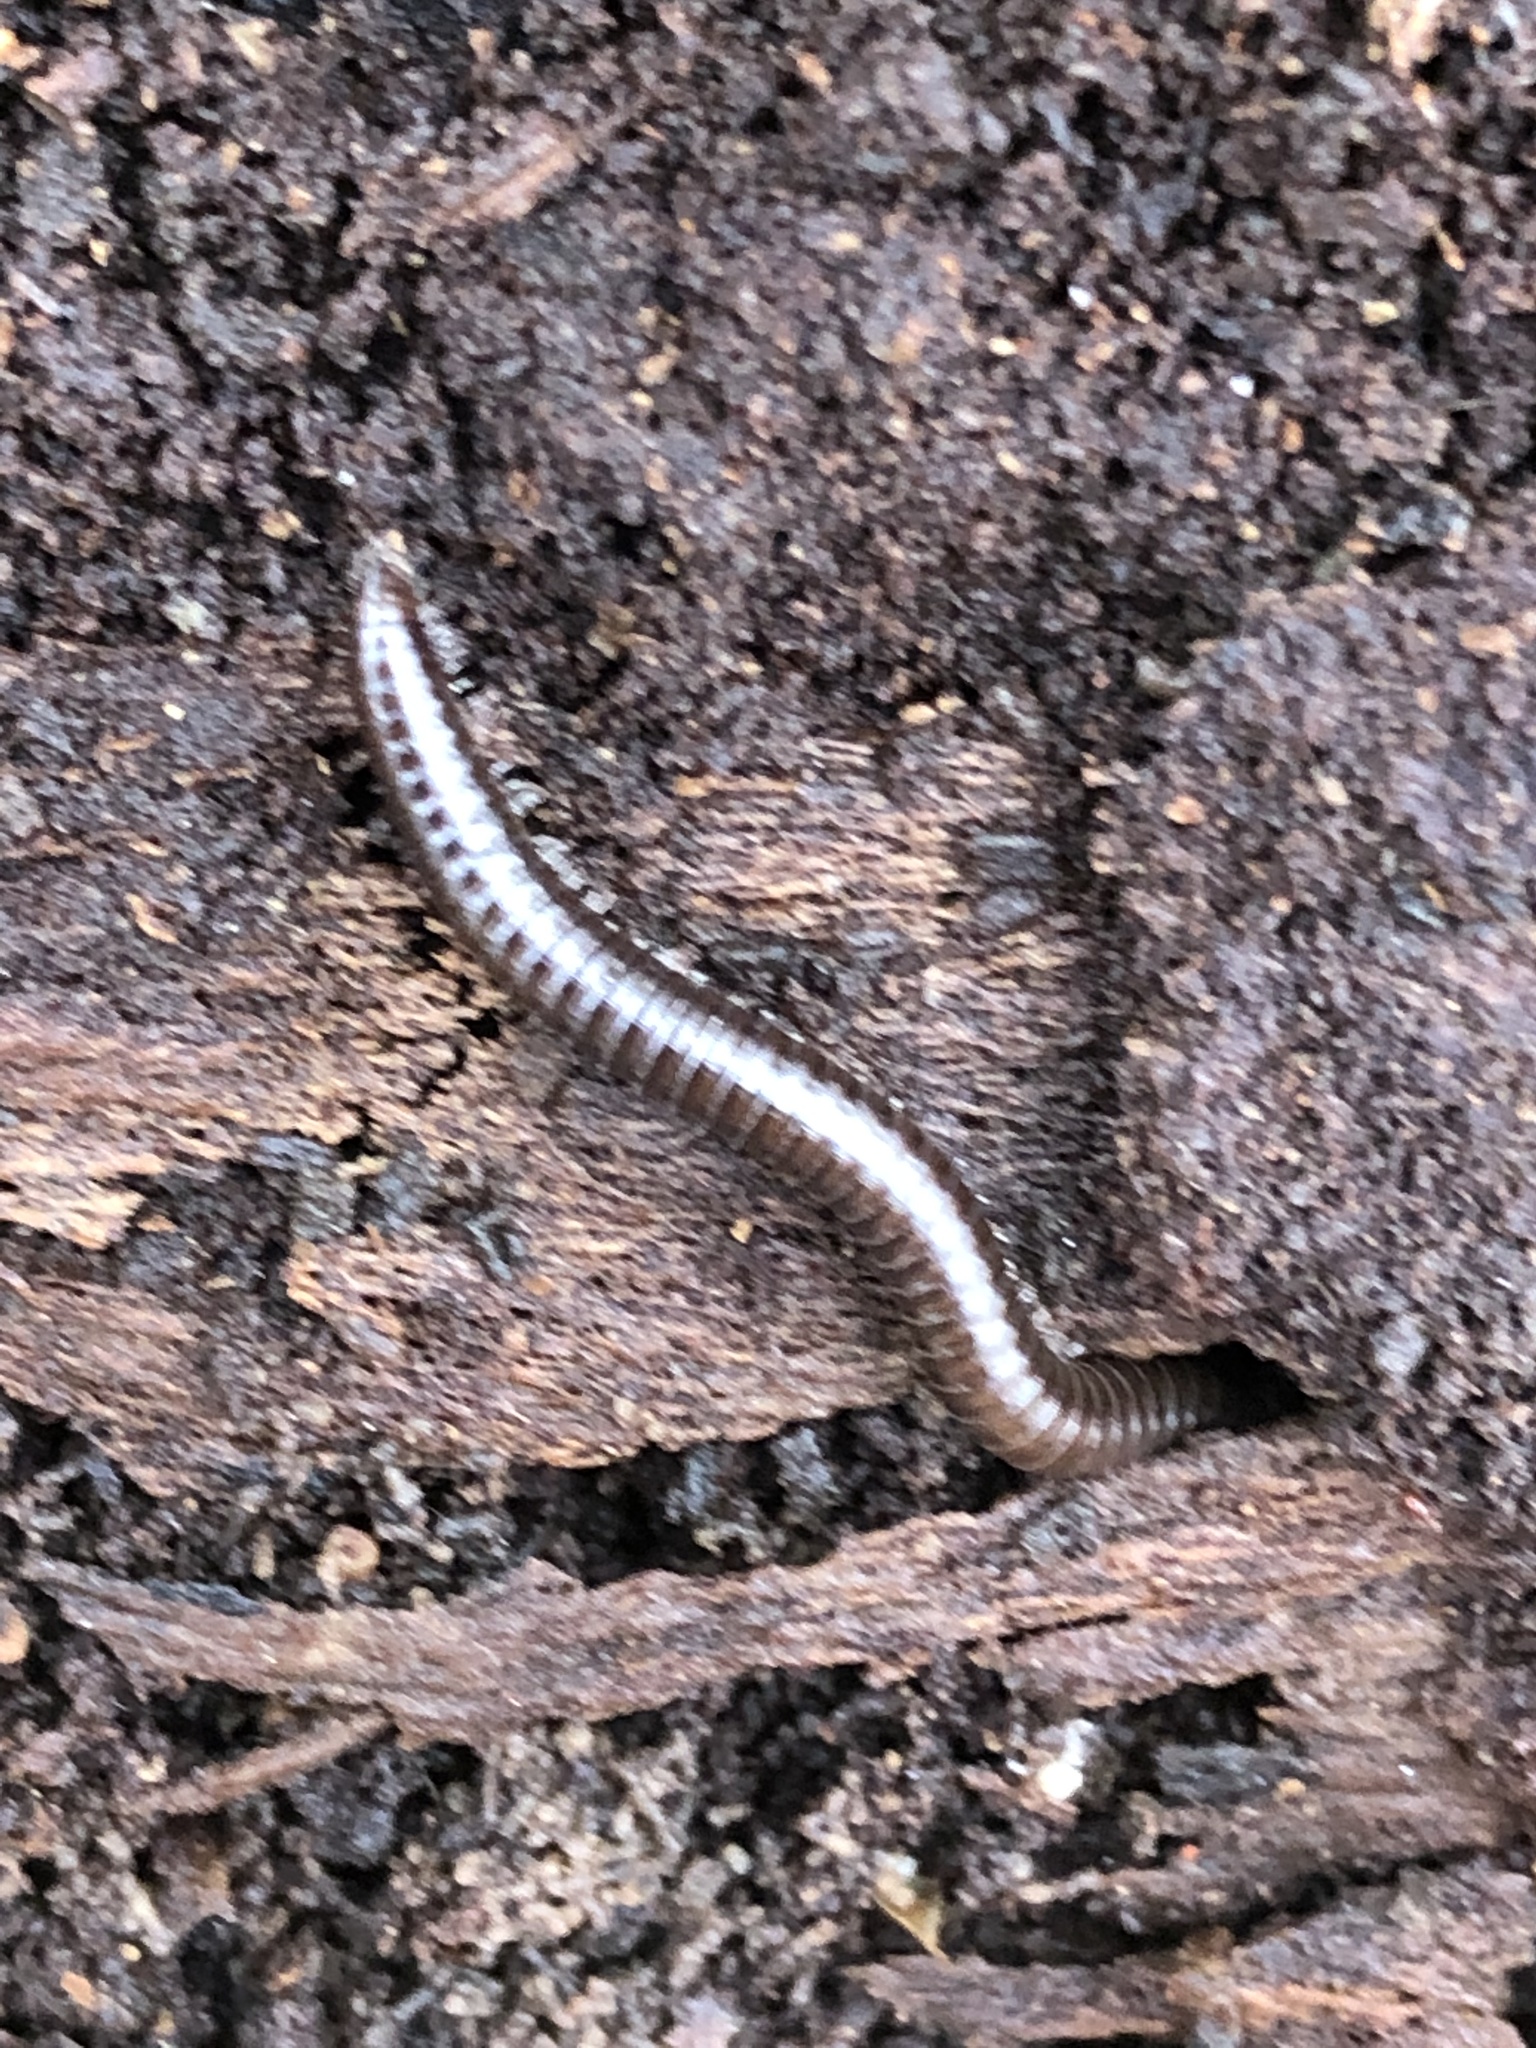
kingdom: Animalia
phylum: Arthropoda
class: Diplopoda
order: Julida
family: Julidae
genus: Ophyiulus
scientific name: Ophyiulus pilosus
